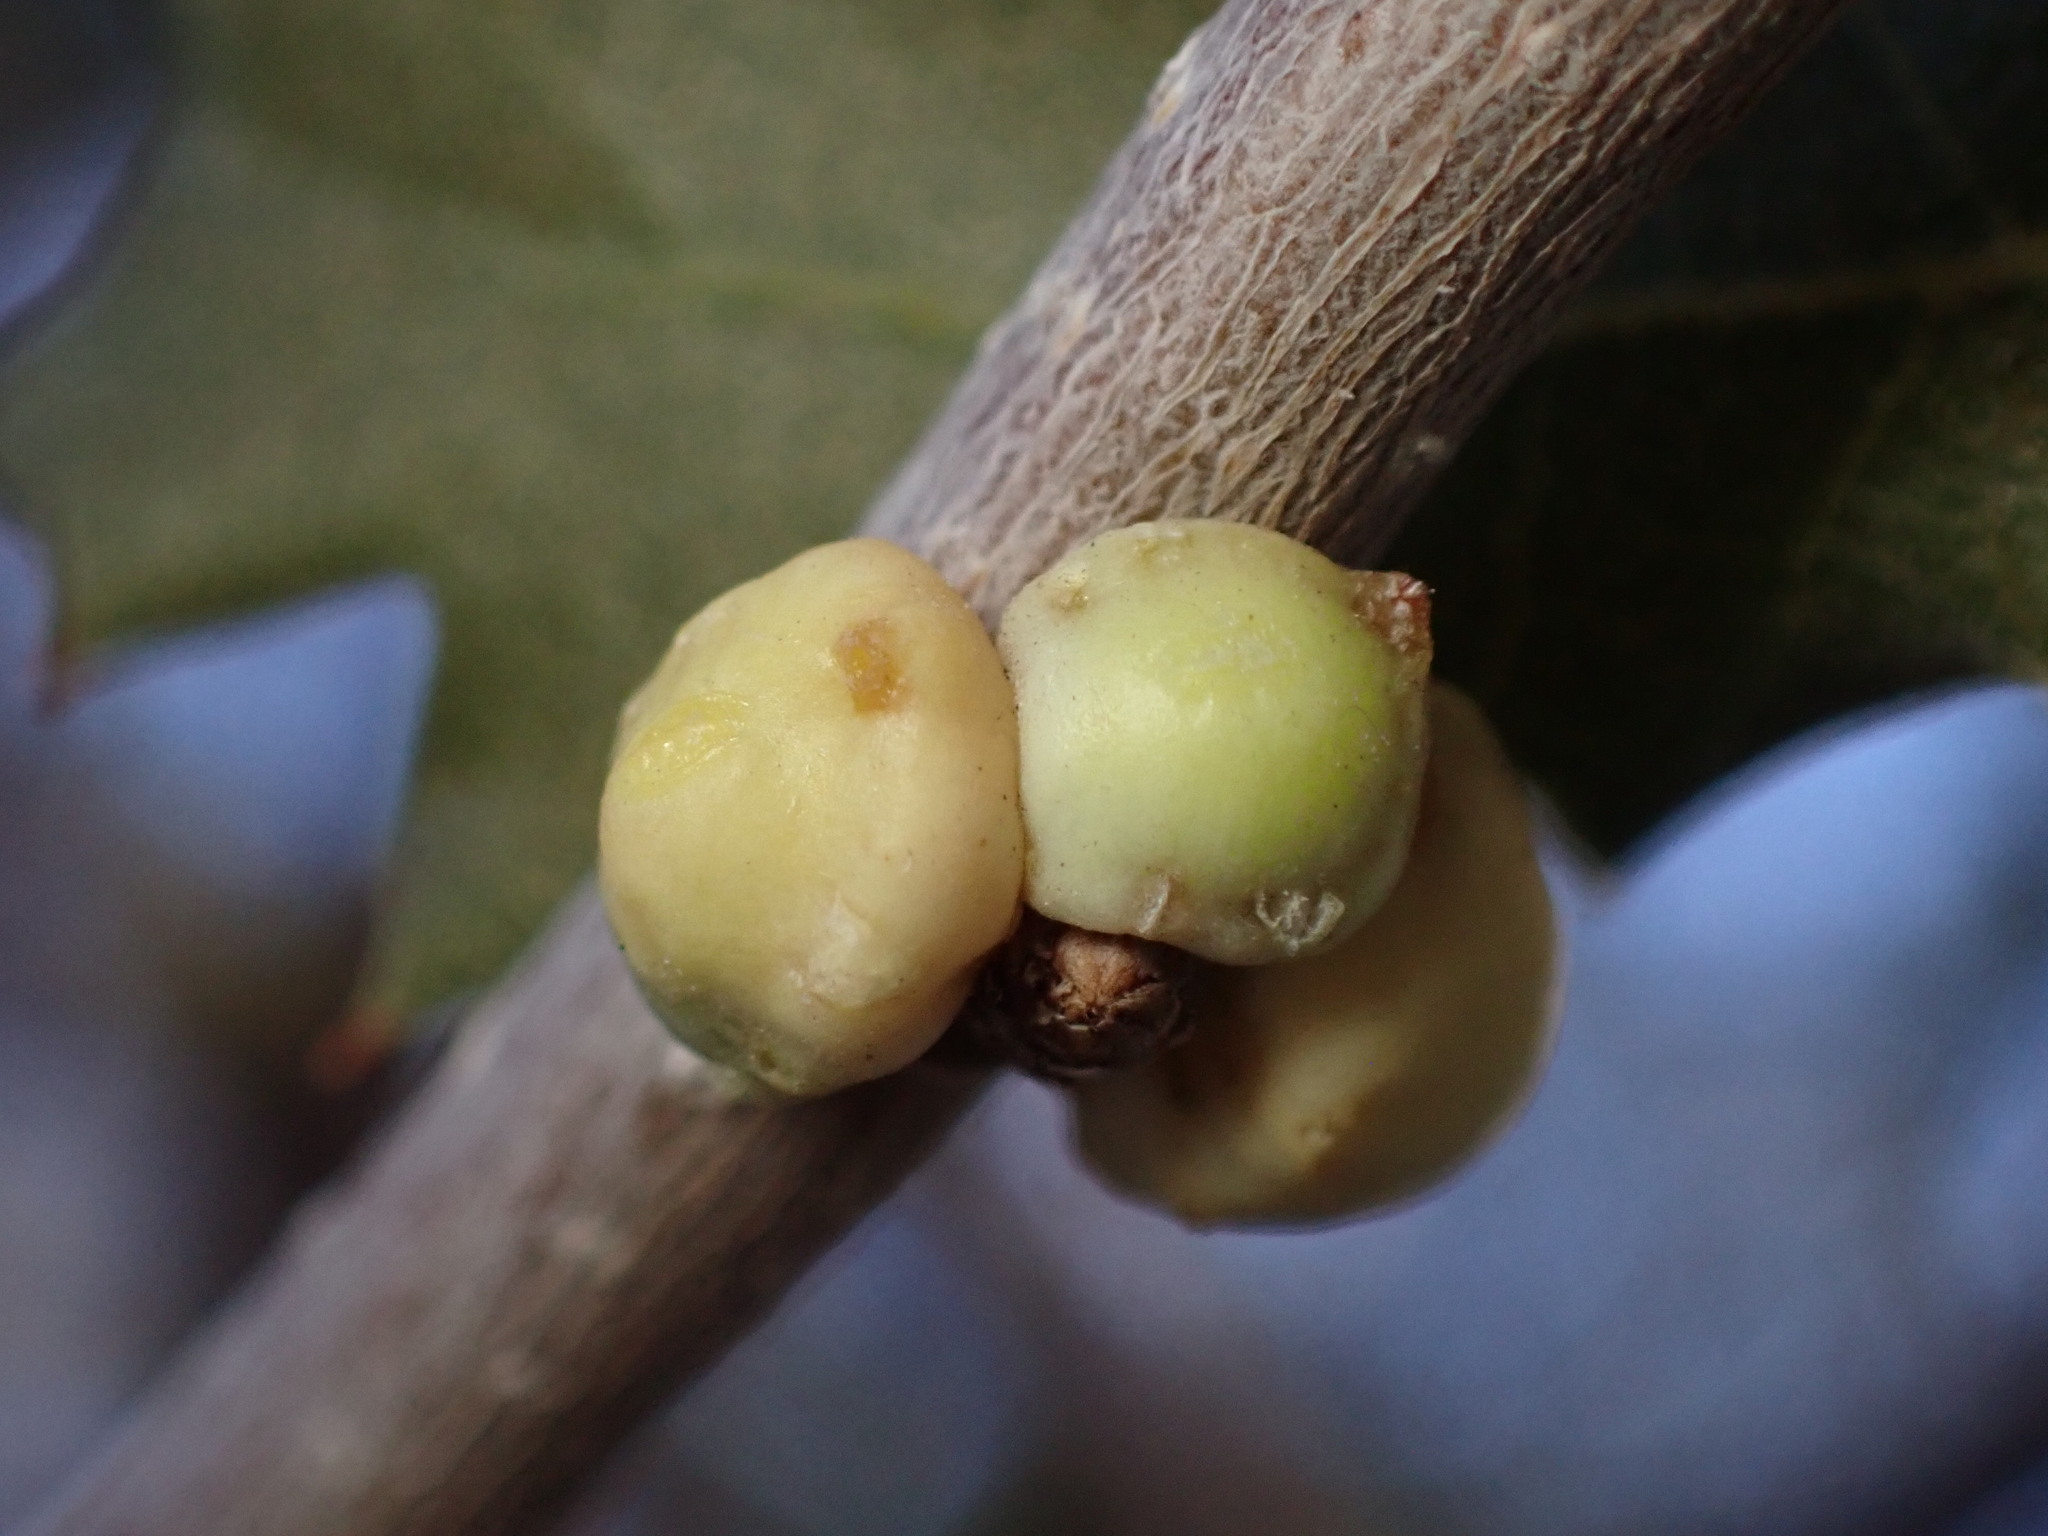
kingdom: Animalia
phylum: Arthropoda
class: Insecta
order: Hemiptera
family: Cerococcidae
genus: Cerococcus
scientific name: Cerococcus quercus
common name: Oak cerococcus
